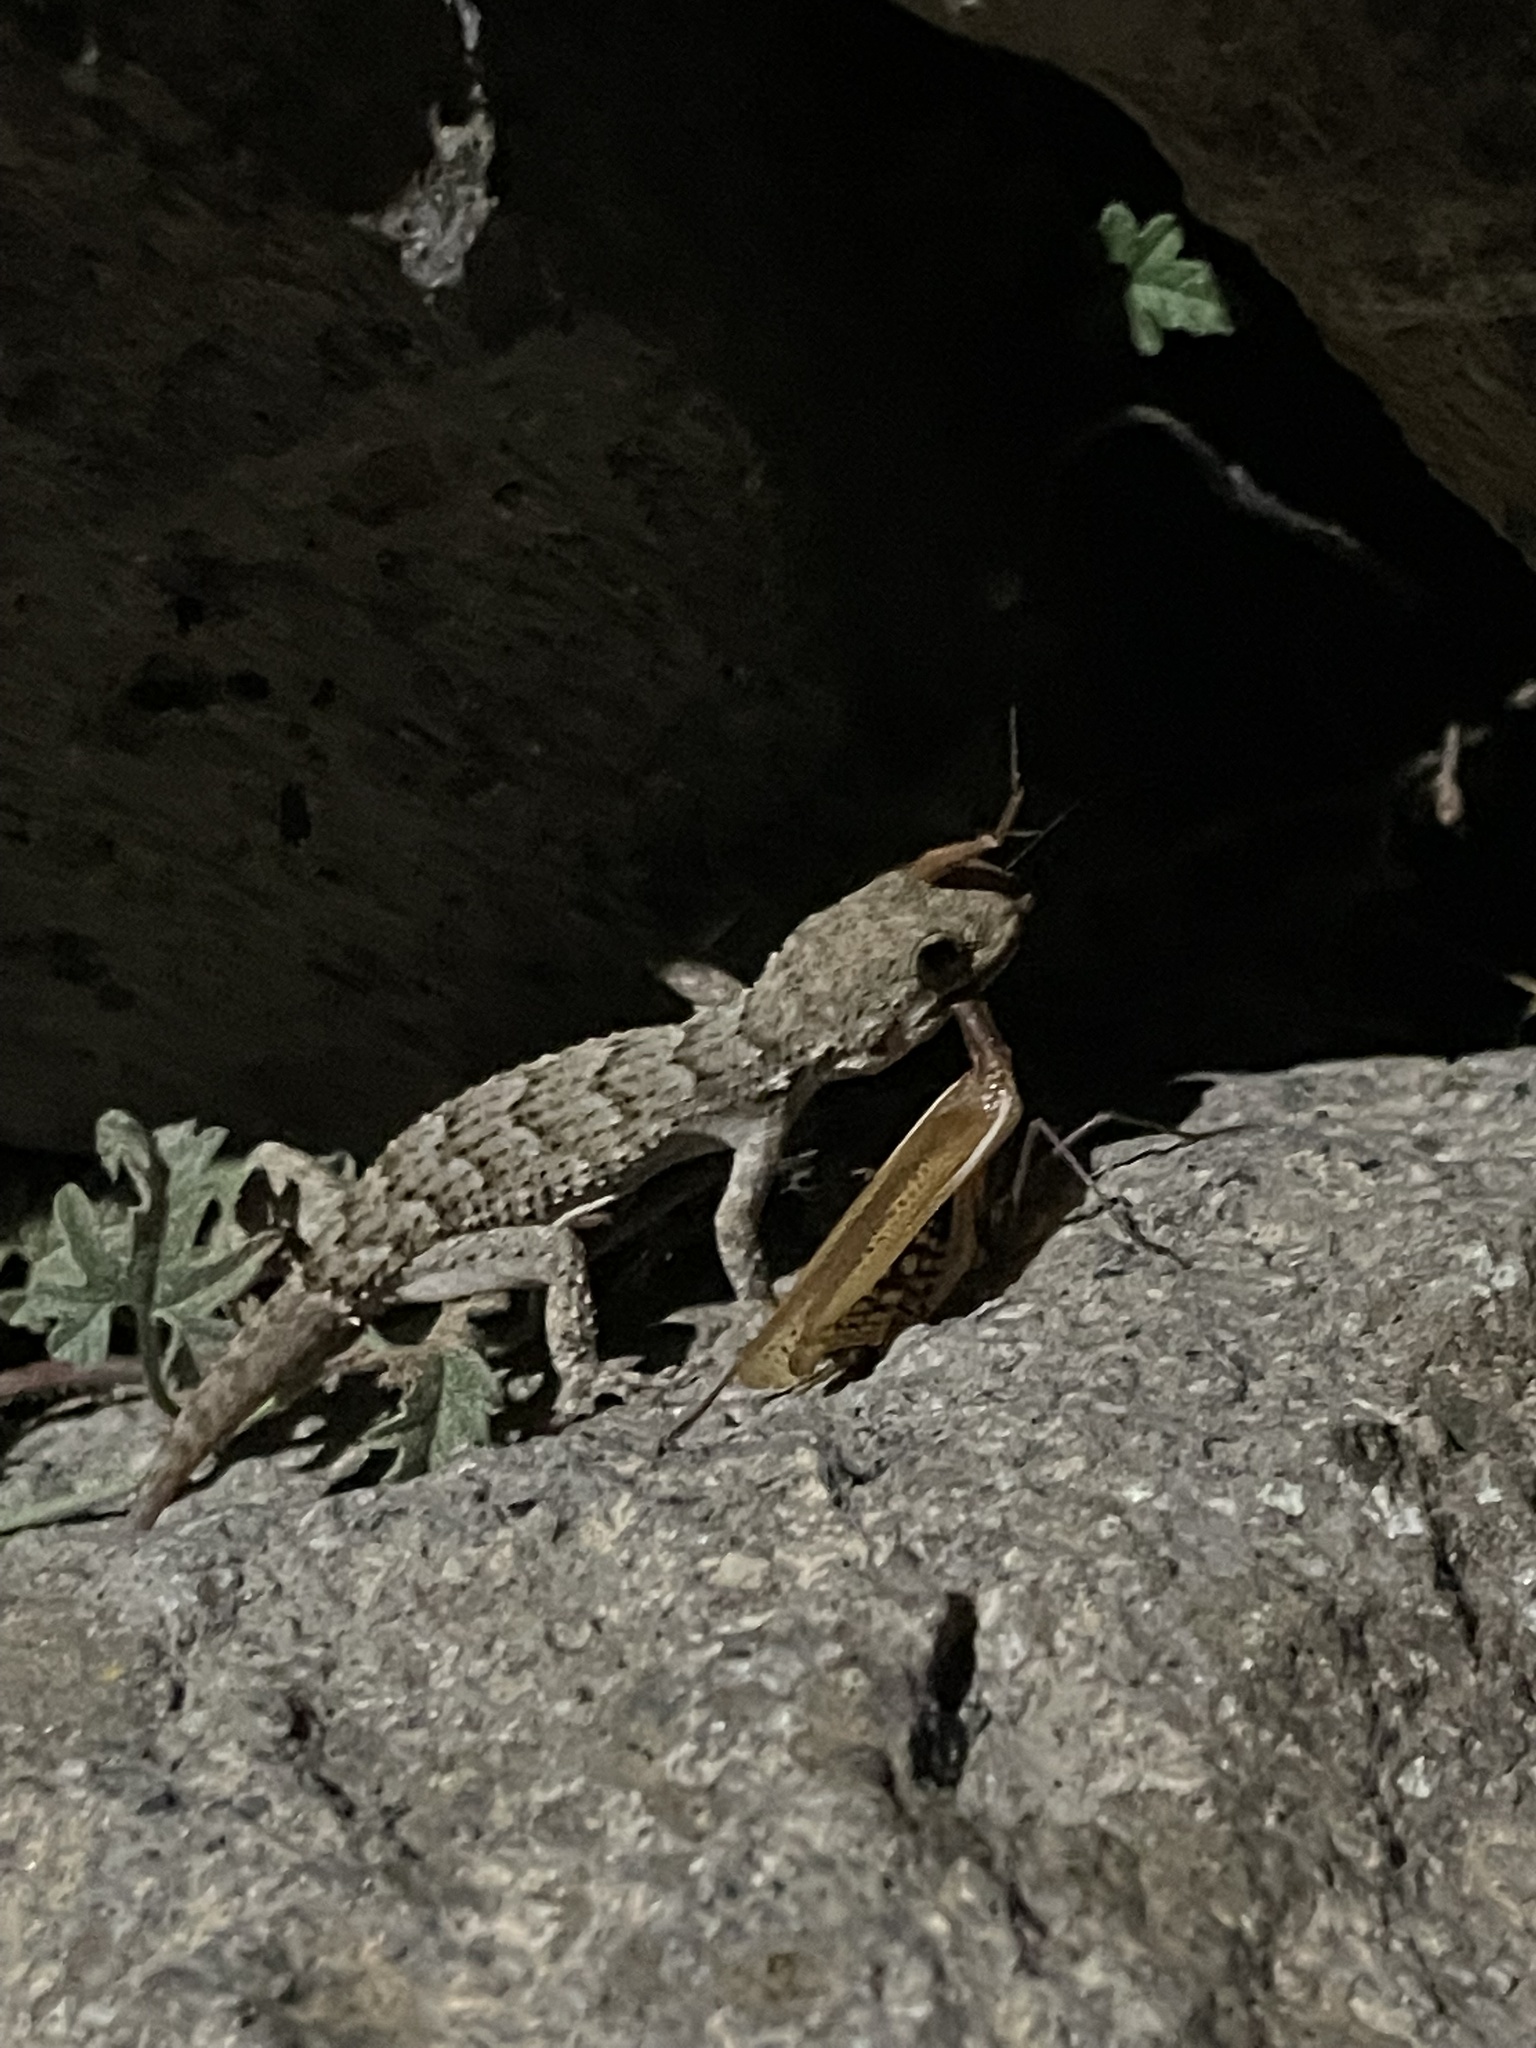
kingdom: Animalia
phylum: Chordata
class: Squamata
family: Gekkonidae
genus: Mediodactylus
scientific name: Mediodactylus kotschyi
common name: Kotschy's gecko
